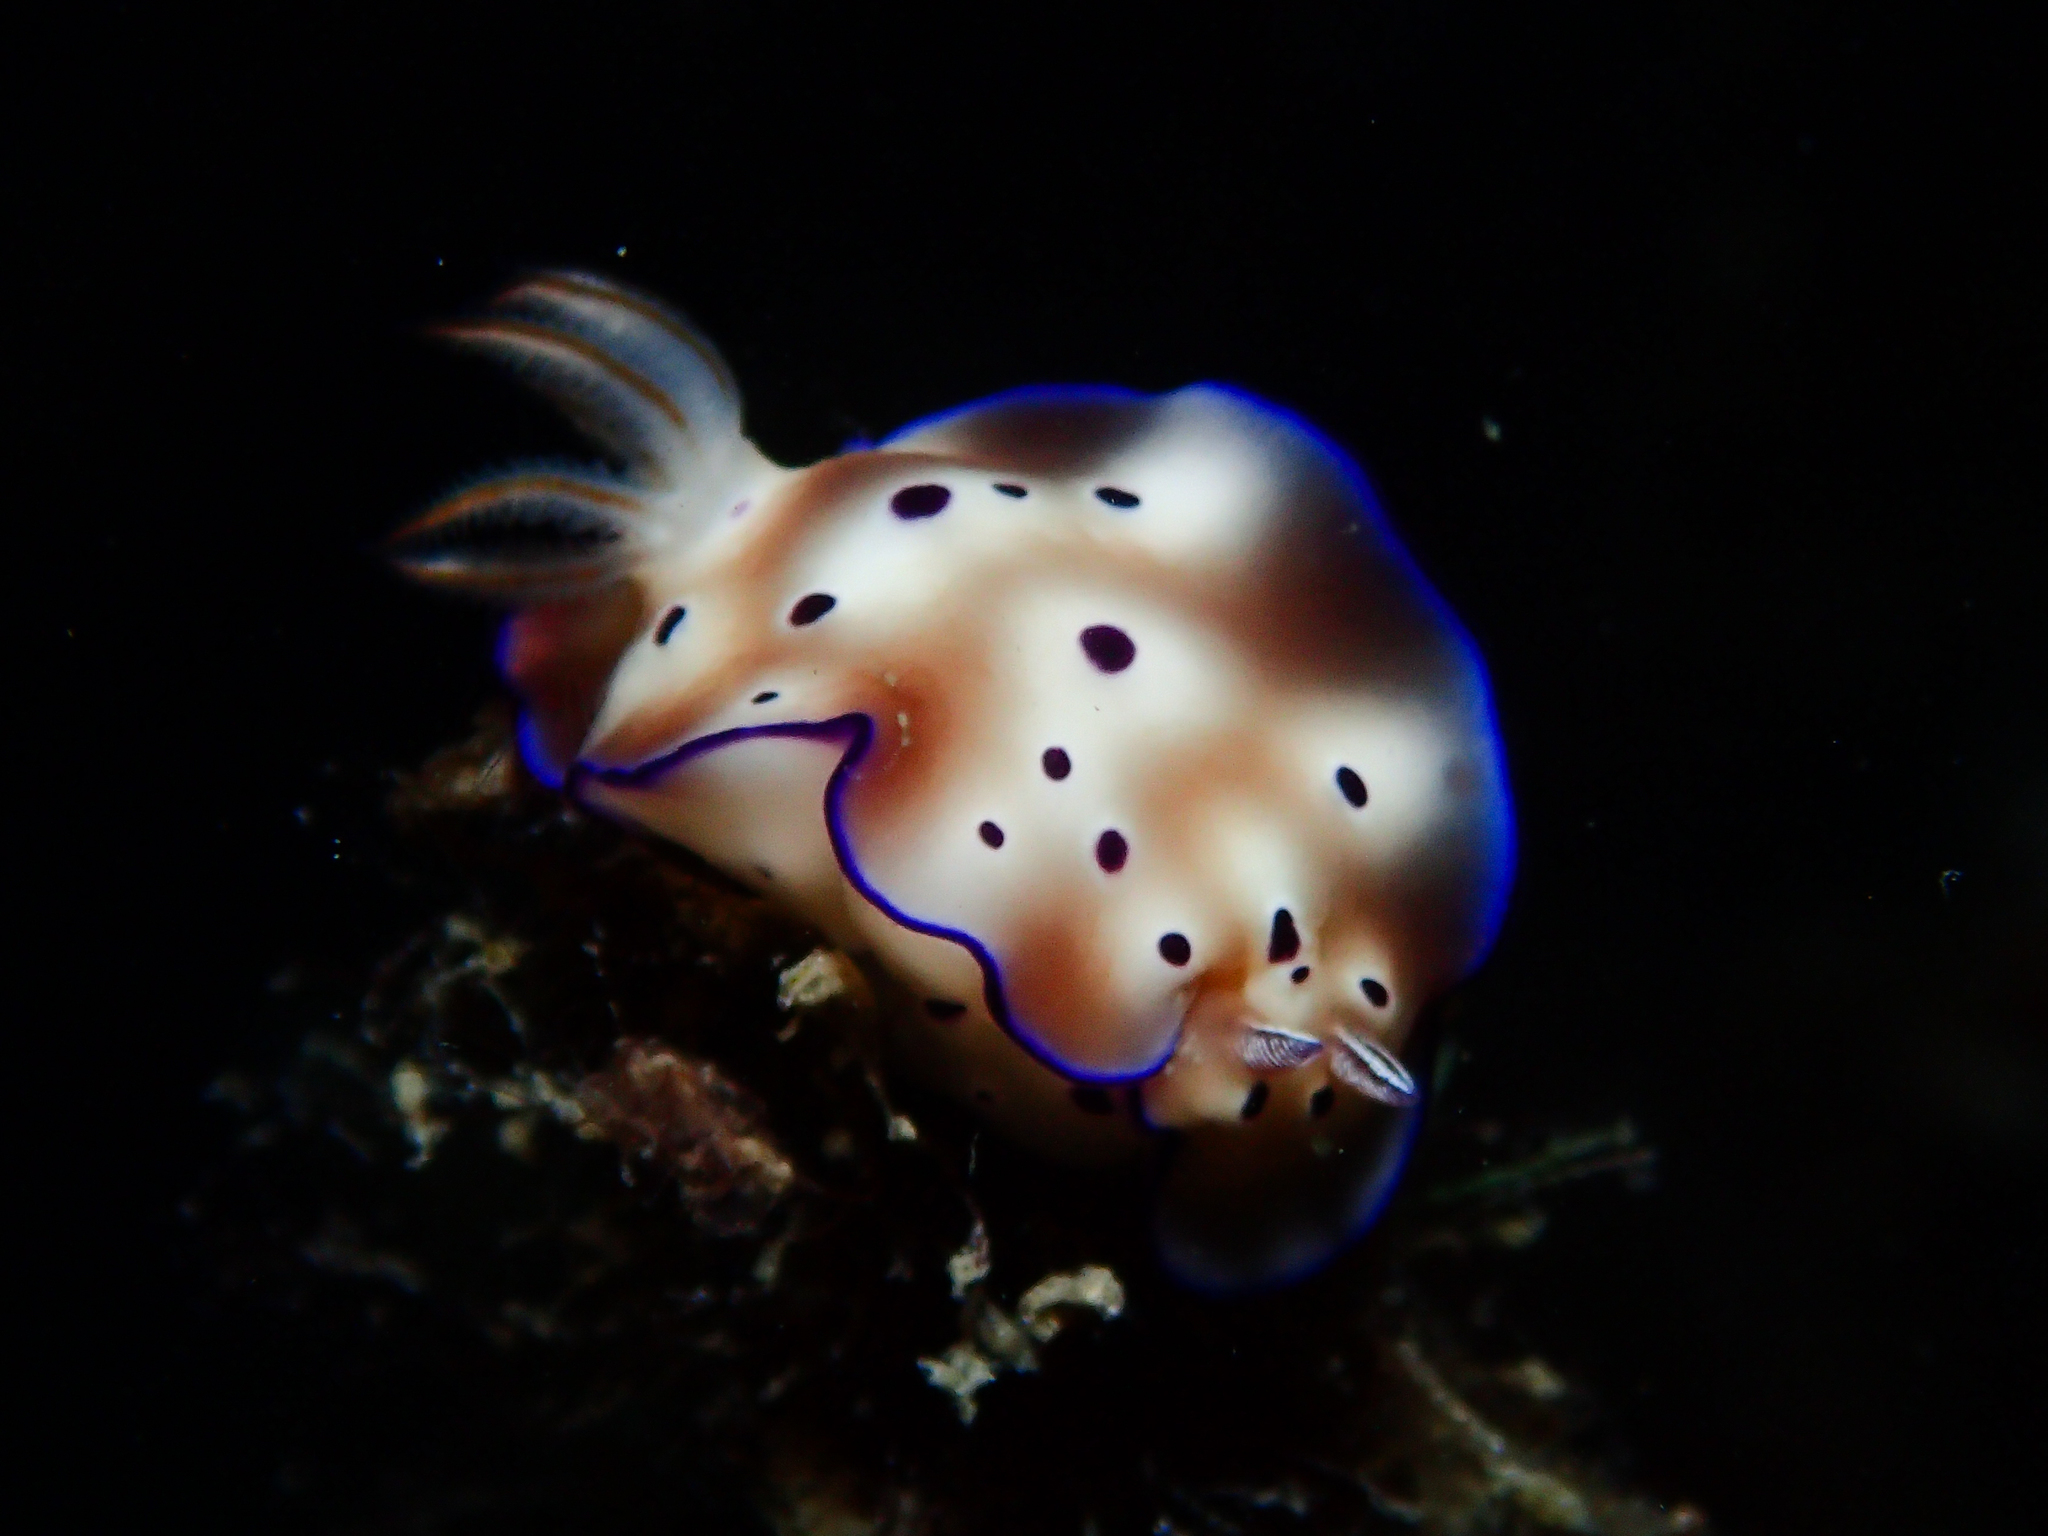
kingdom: Animalia
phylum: Mollusca
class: Gastropoda
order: Nudibranchia
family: Chromodorididae
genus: Hypselodoris
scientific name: Hypselodoris tryoni
